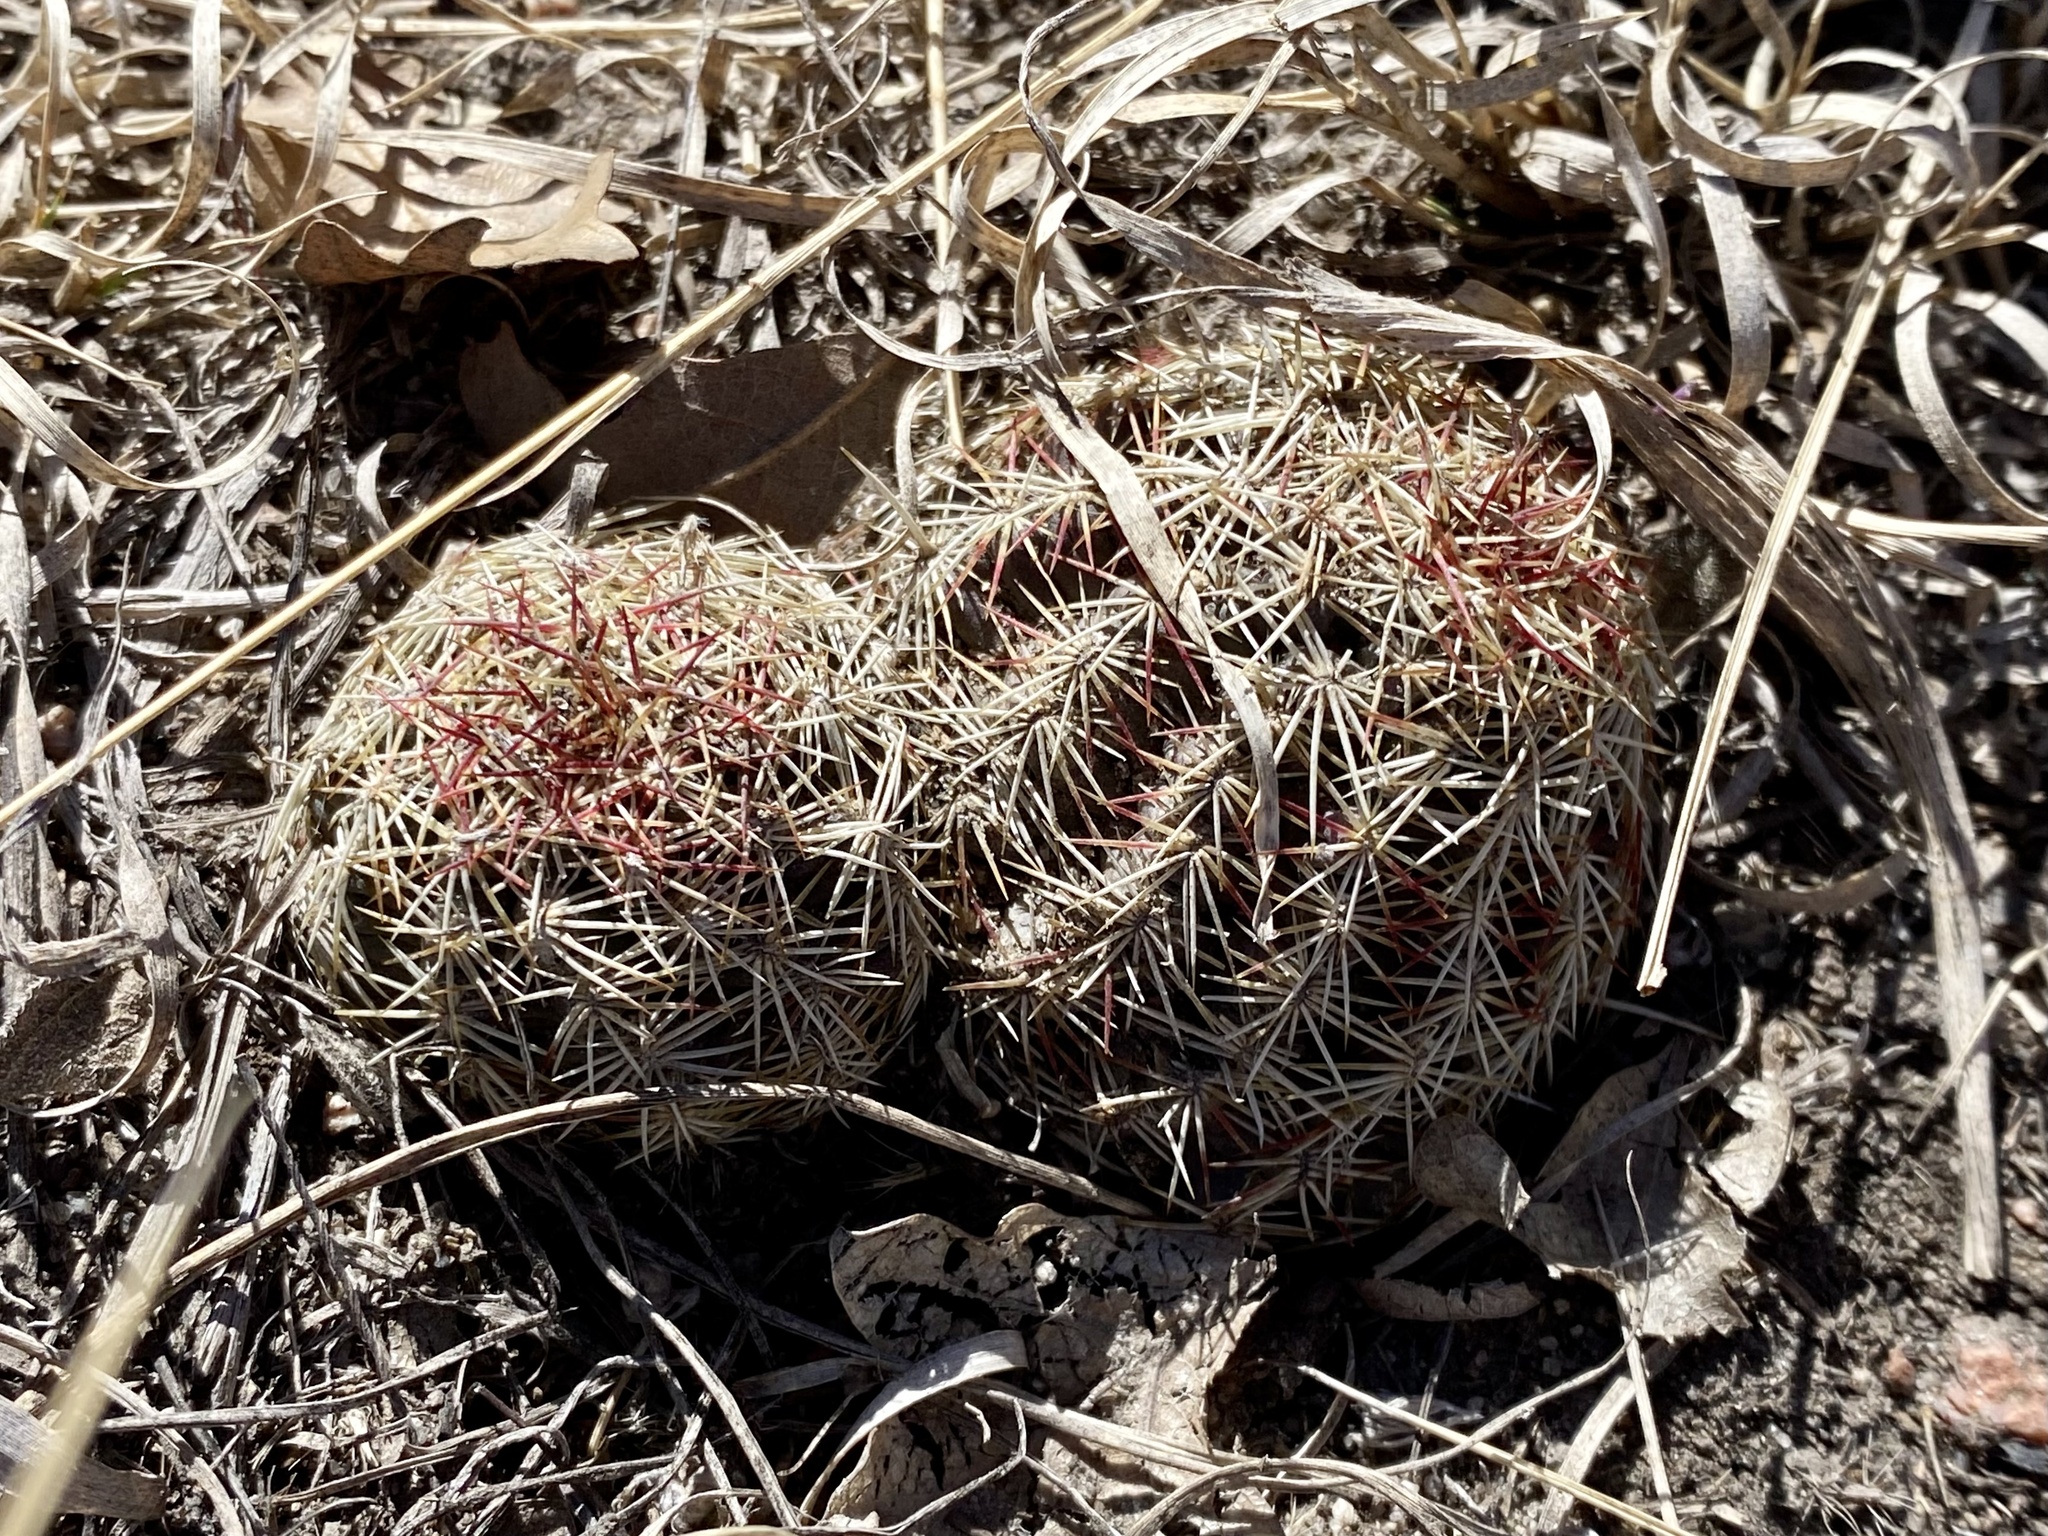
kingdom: Plantae
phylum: Tracheophyta
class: Magnoliopsida
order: Caryophyllales
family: Cactaceae
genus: Echinocereus
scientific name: Echinocereus viridiflorus
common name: Nylon hedgehog cactus
